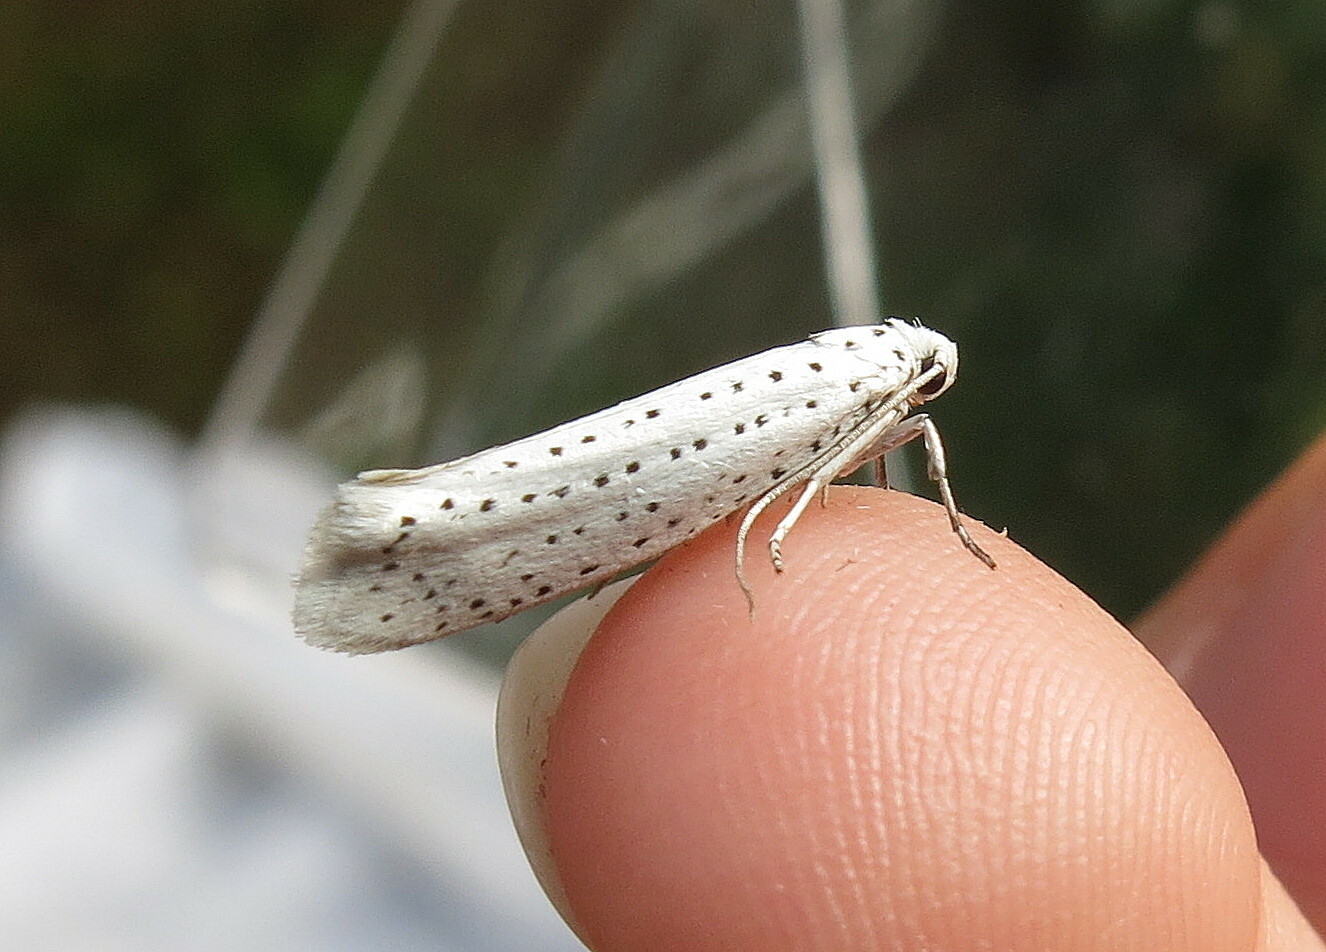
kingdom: Animalia
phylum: Arthropoda
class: Insecta
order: Lepidoptera
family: Yponomeutidae
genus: Yponomeuta
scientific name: Yponomeuta evonymella
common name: Bird-cherry ermine
